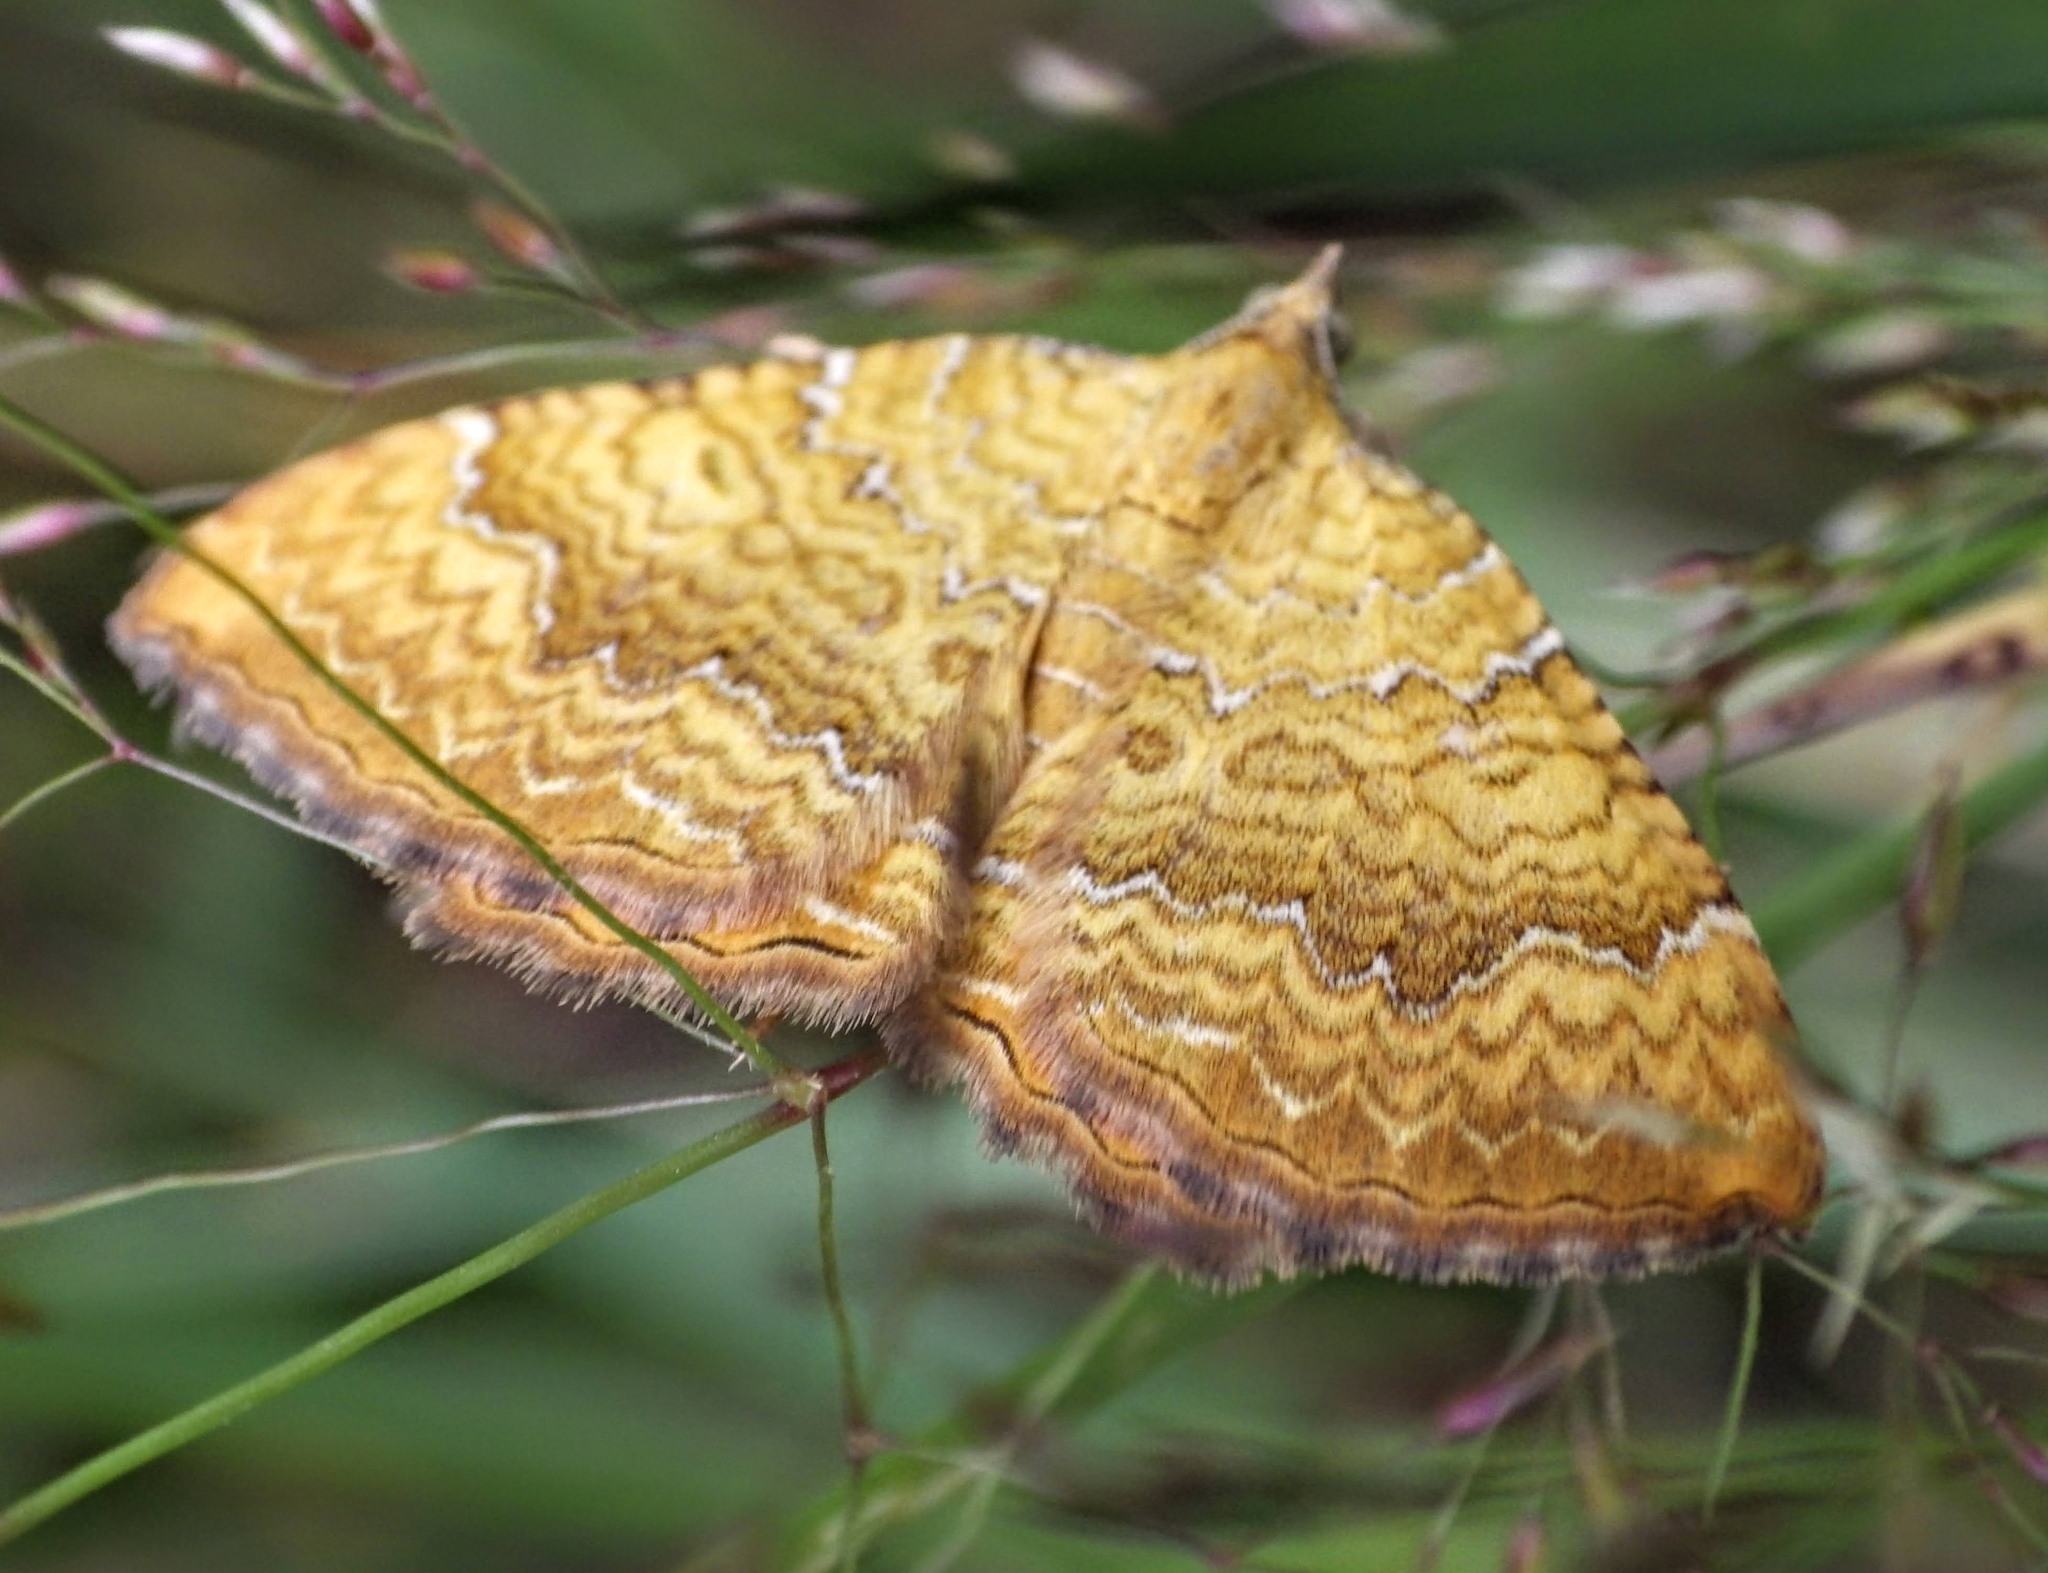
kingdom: Animalia
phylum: Arthropoda
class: Insecta
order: Lepidoptera
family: Geometridae
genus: Camptogramma
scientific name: Camptogramma bilineata
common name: Yellow shell
